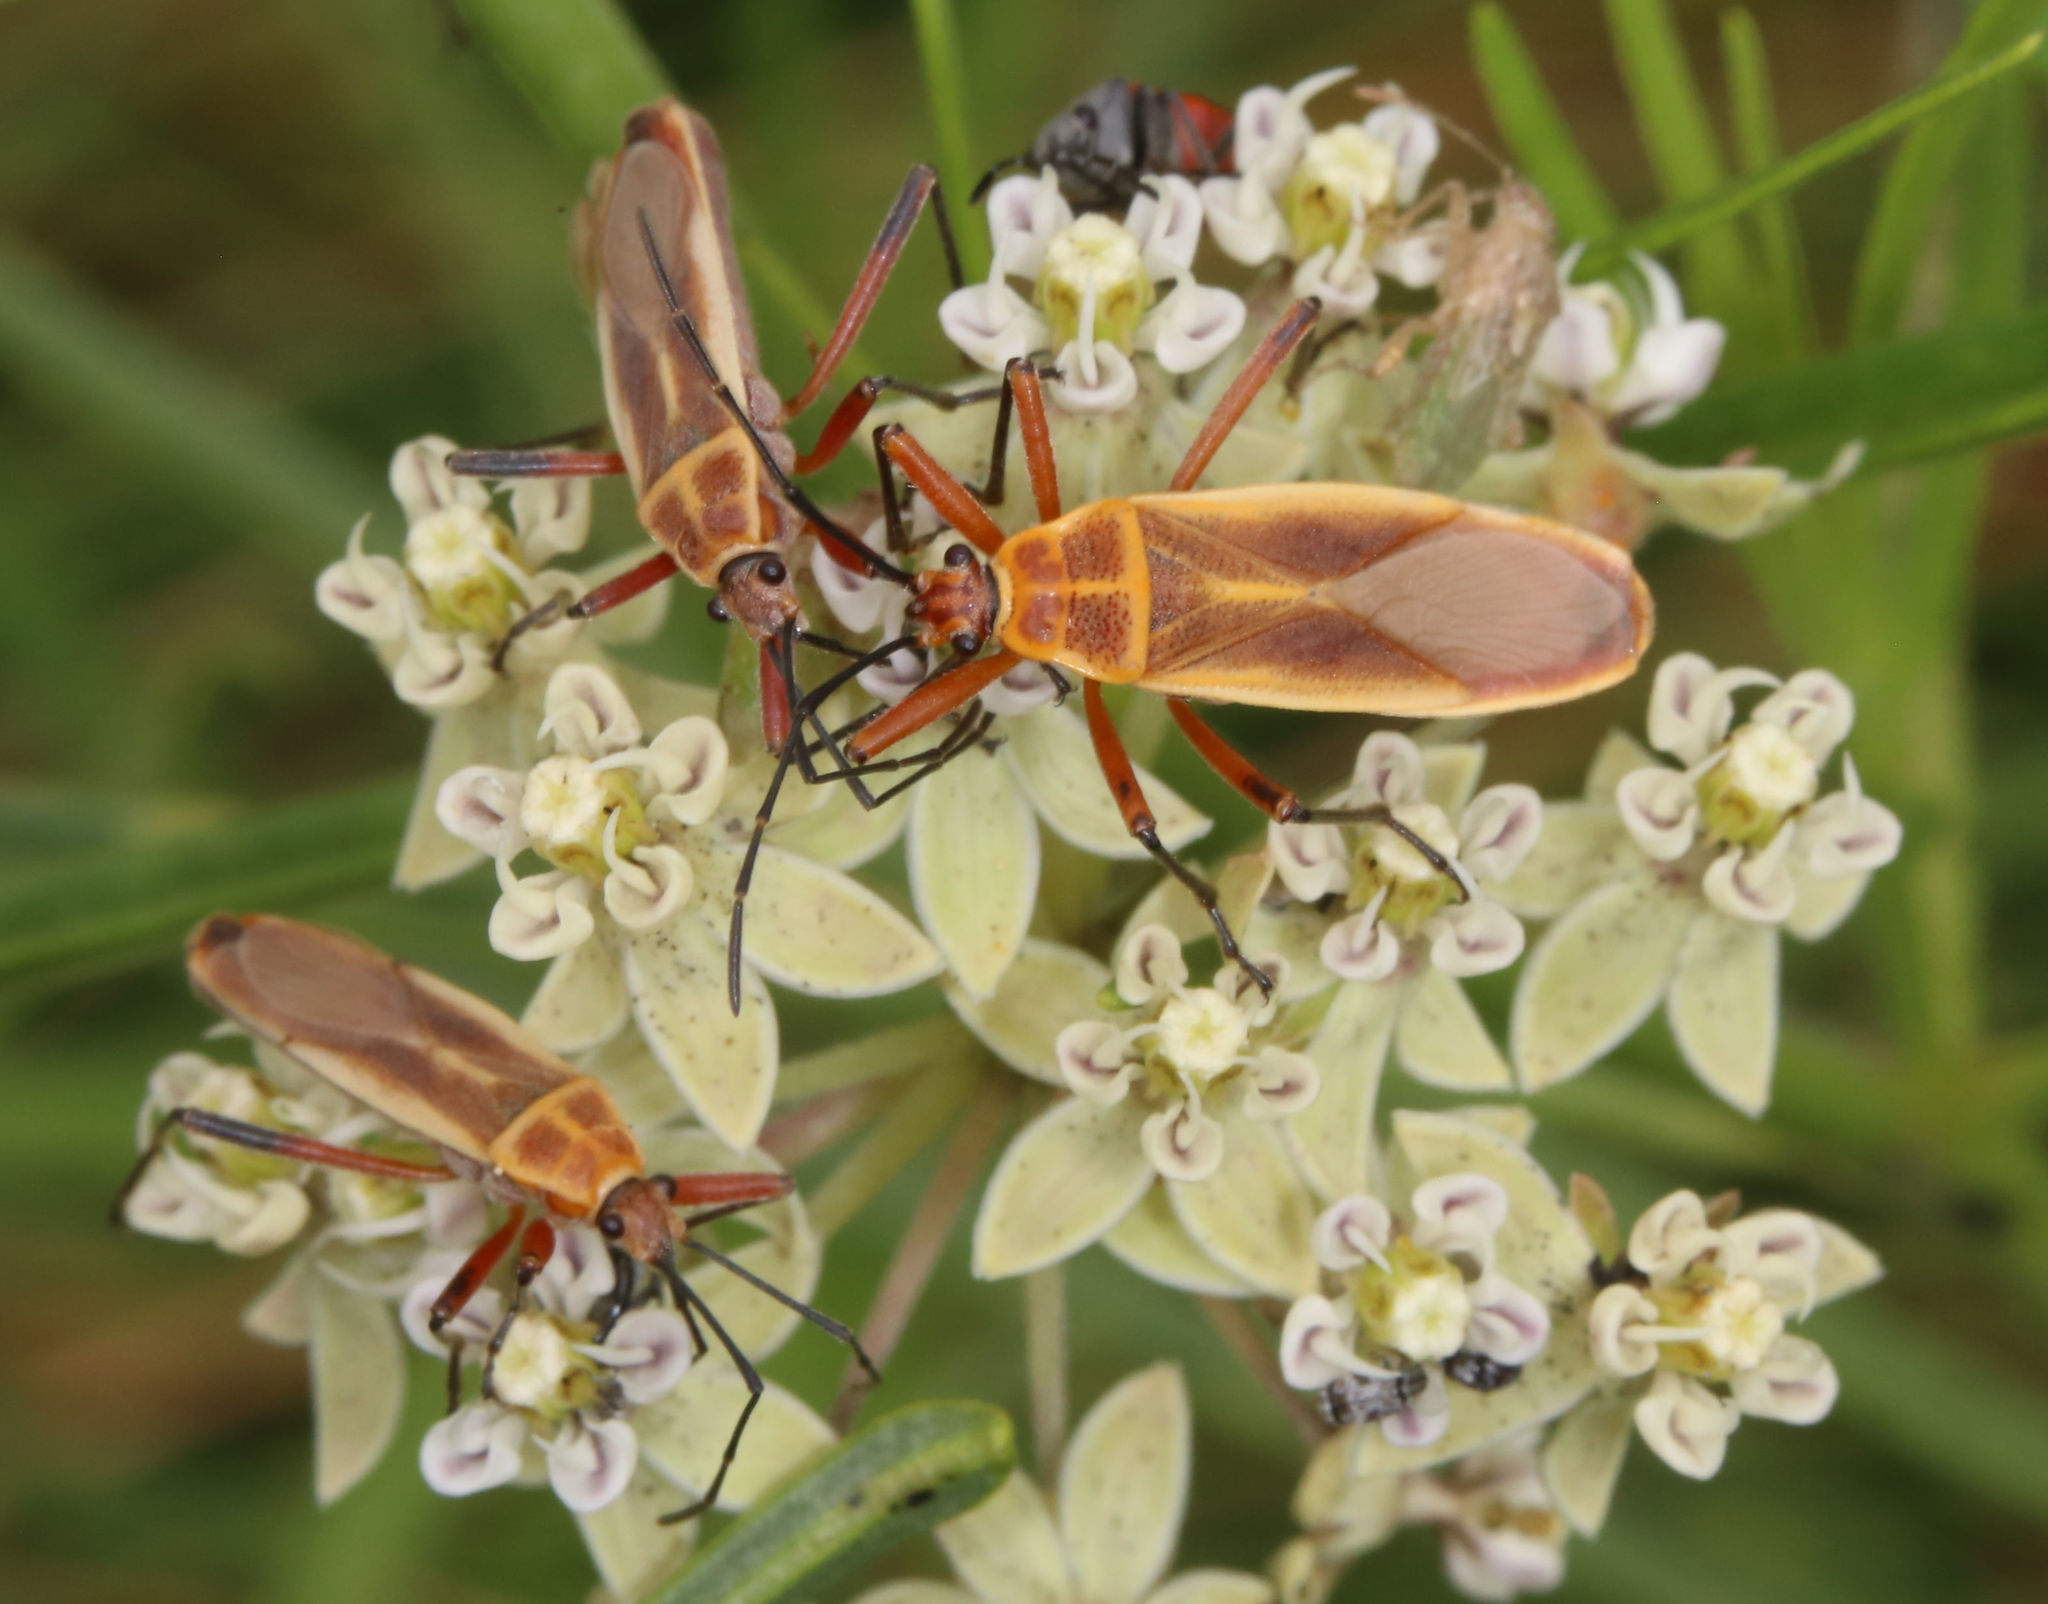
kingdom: Animalia
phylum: Arthropoda
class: Insecta
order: Hemiptera
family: Largidae
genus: Stenomacra
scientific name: Stenomacra marginella
